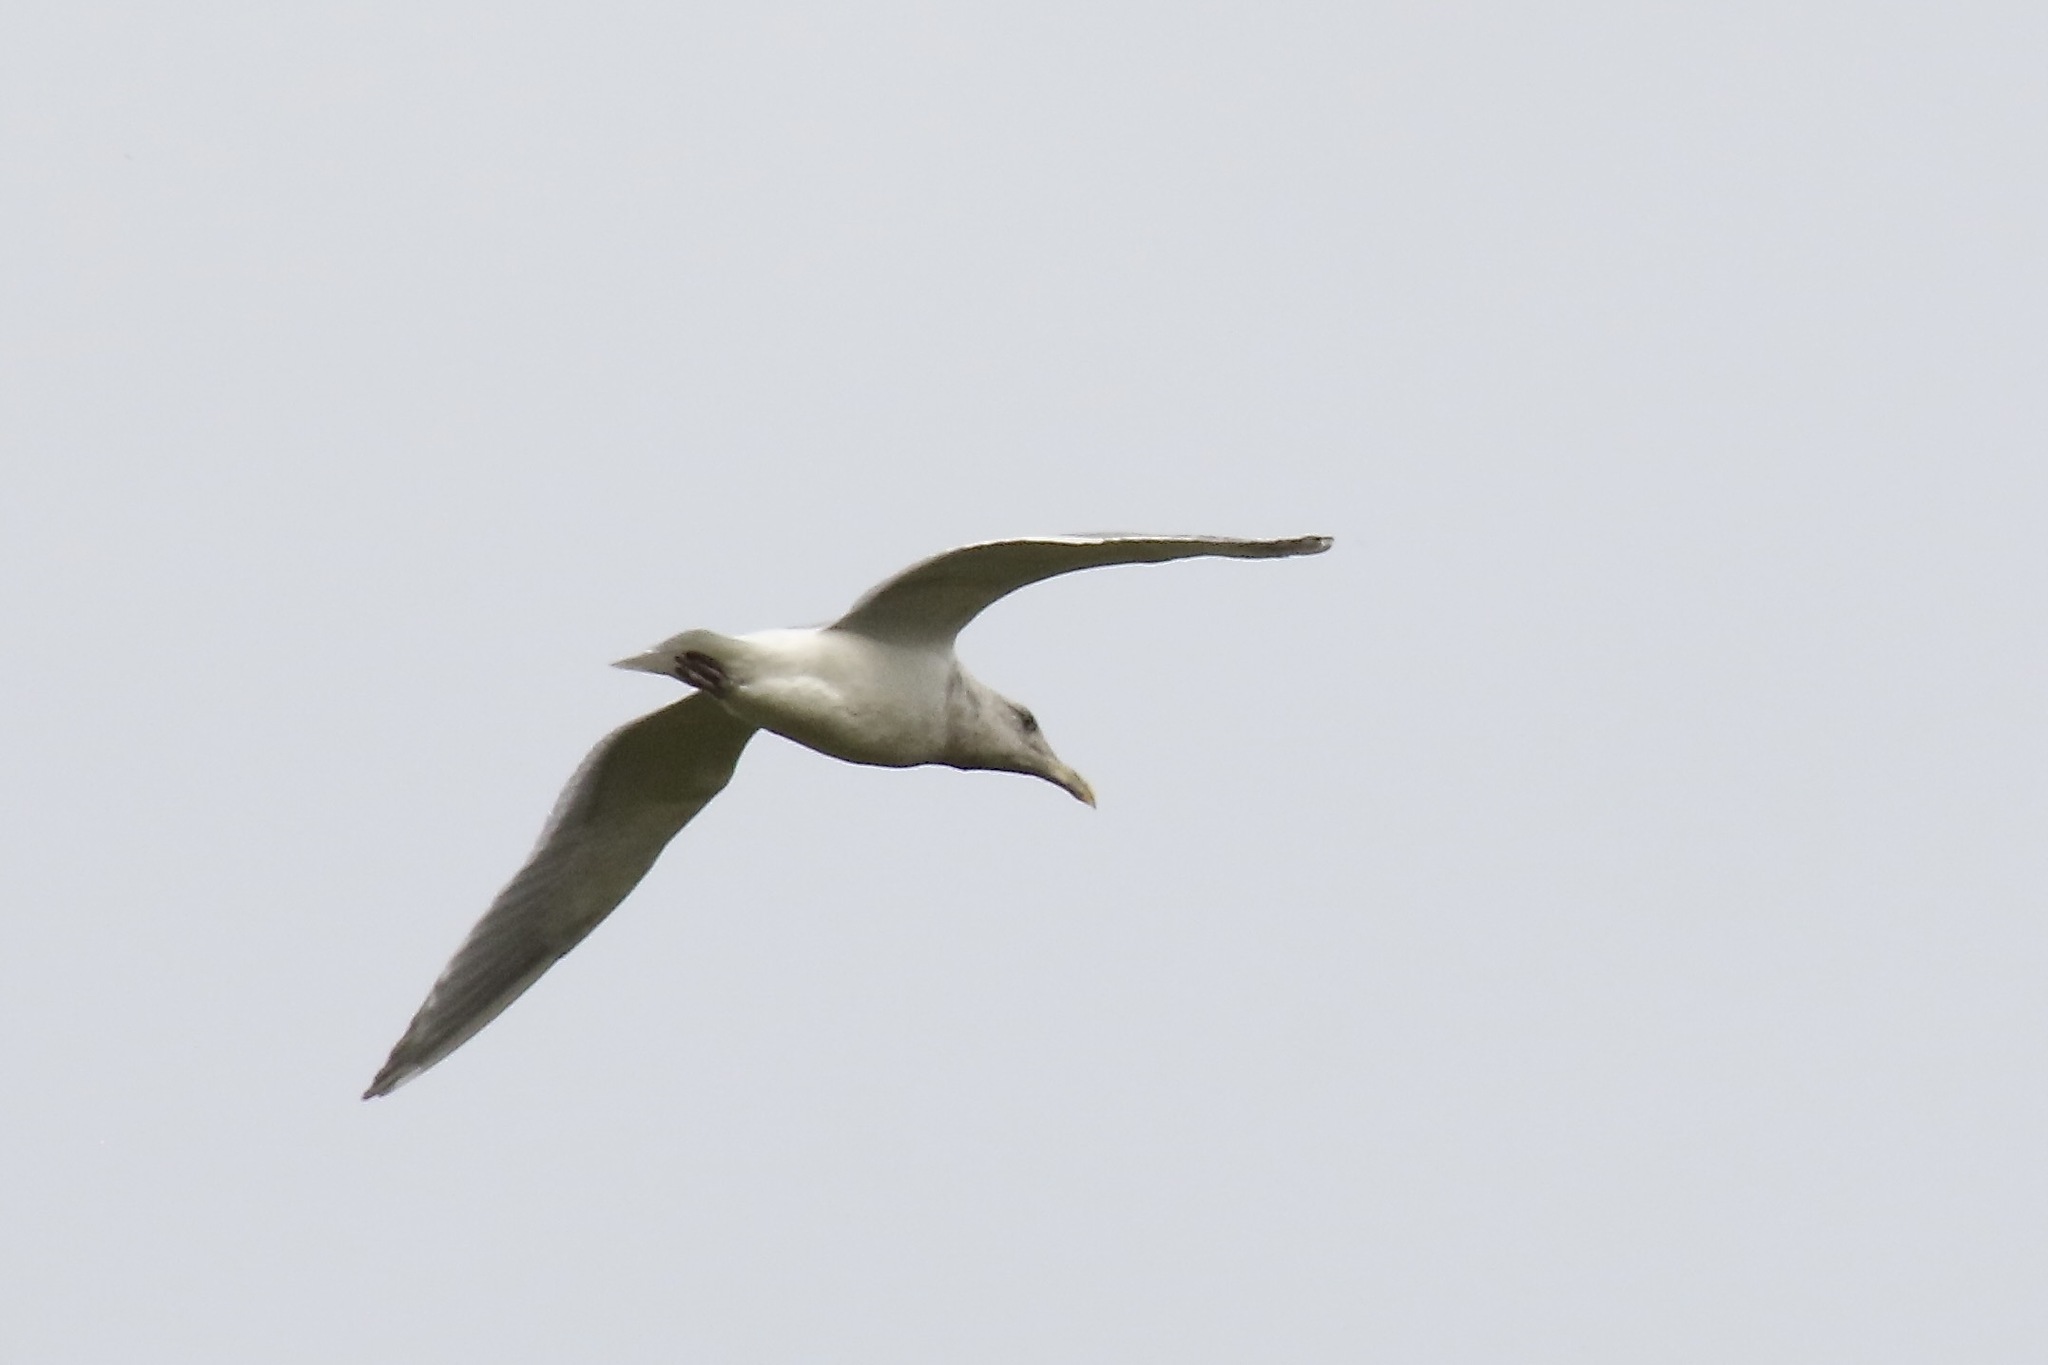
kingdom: Animalia
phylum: Chordata
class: Aves
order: Charadriiformes
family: Laridae
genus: Larus
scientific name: Larus
